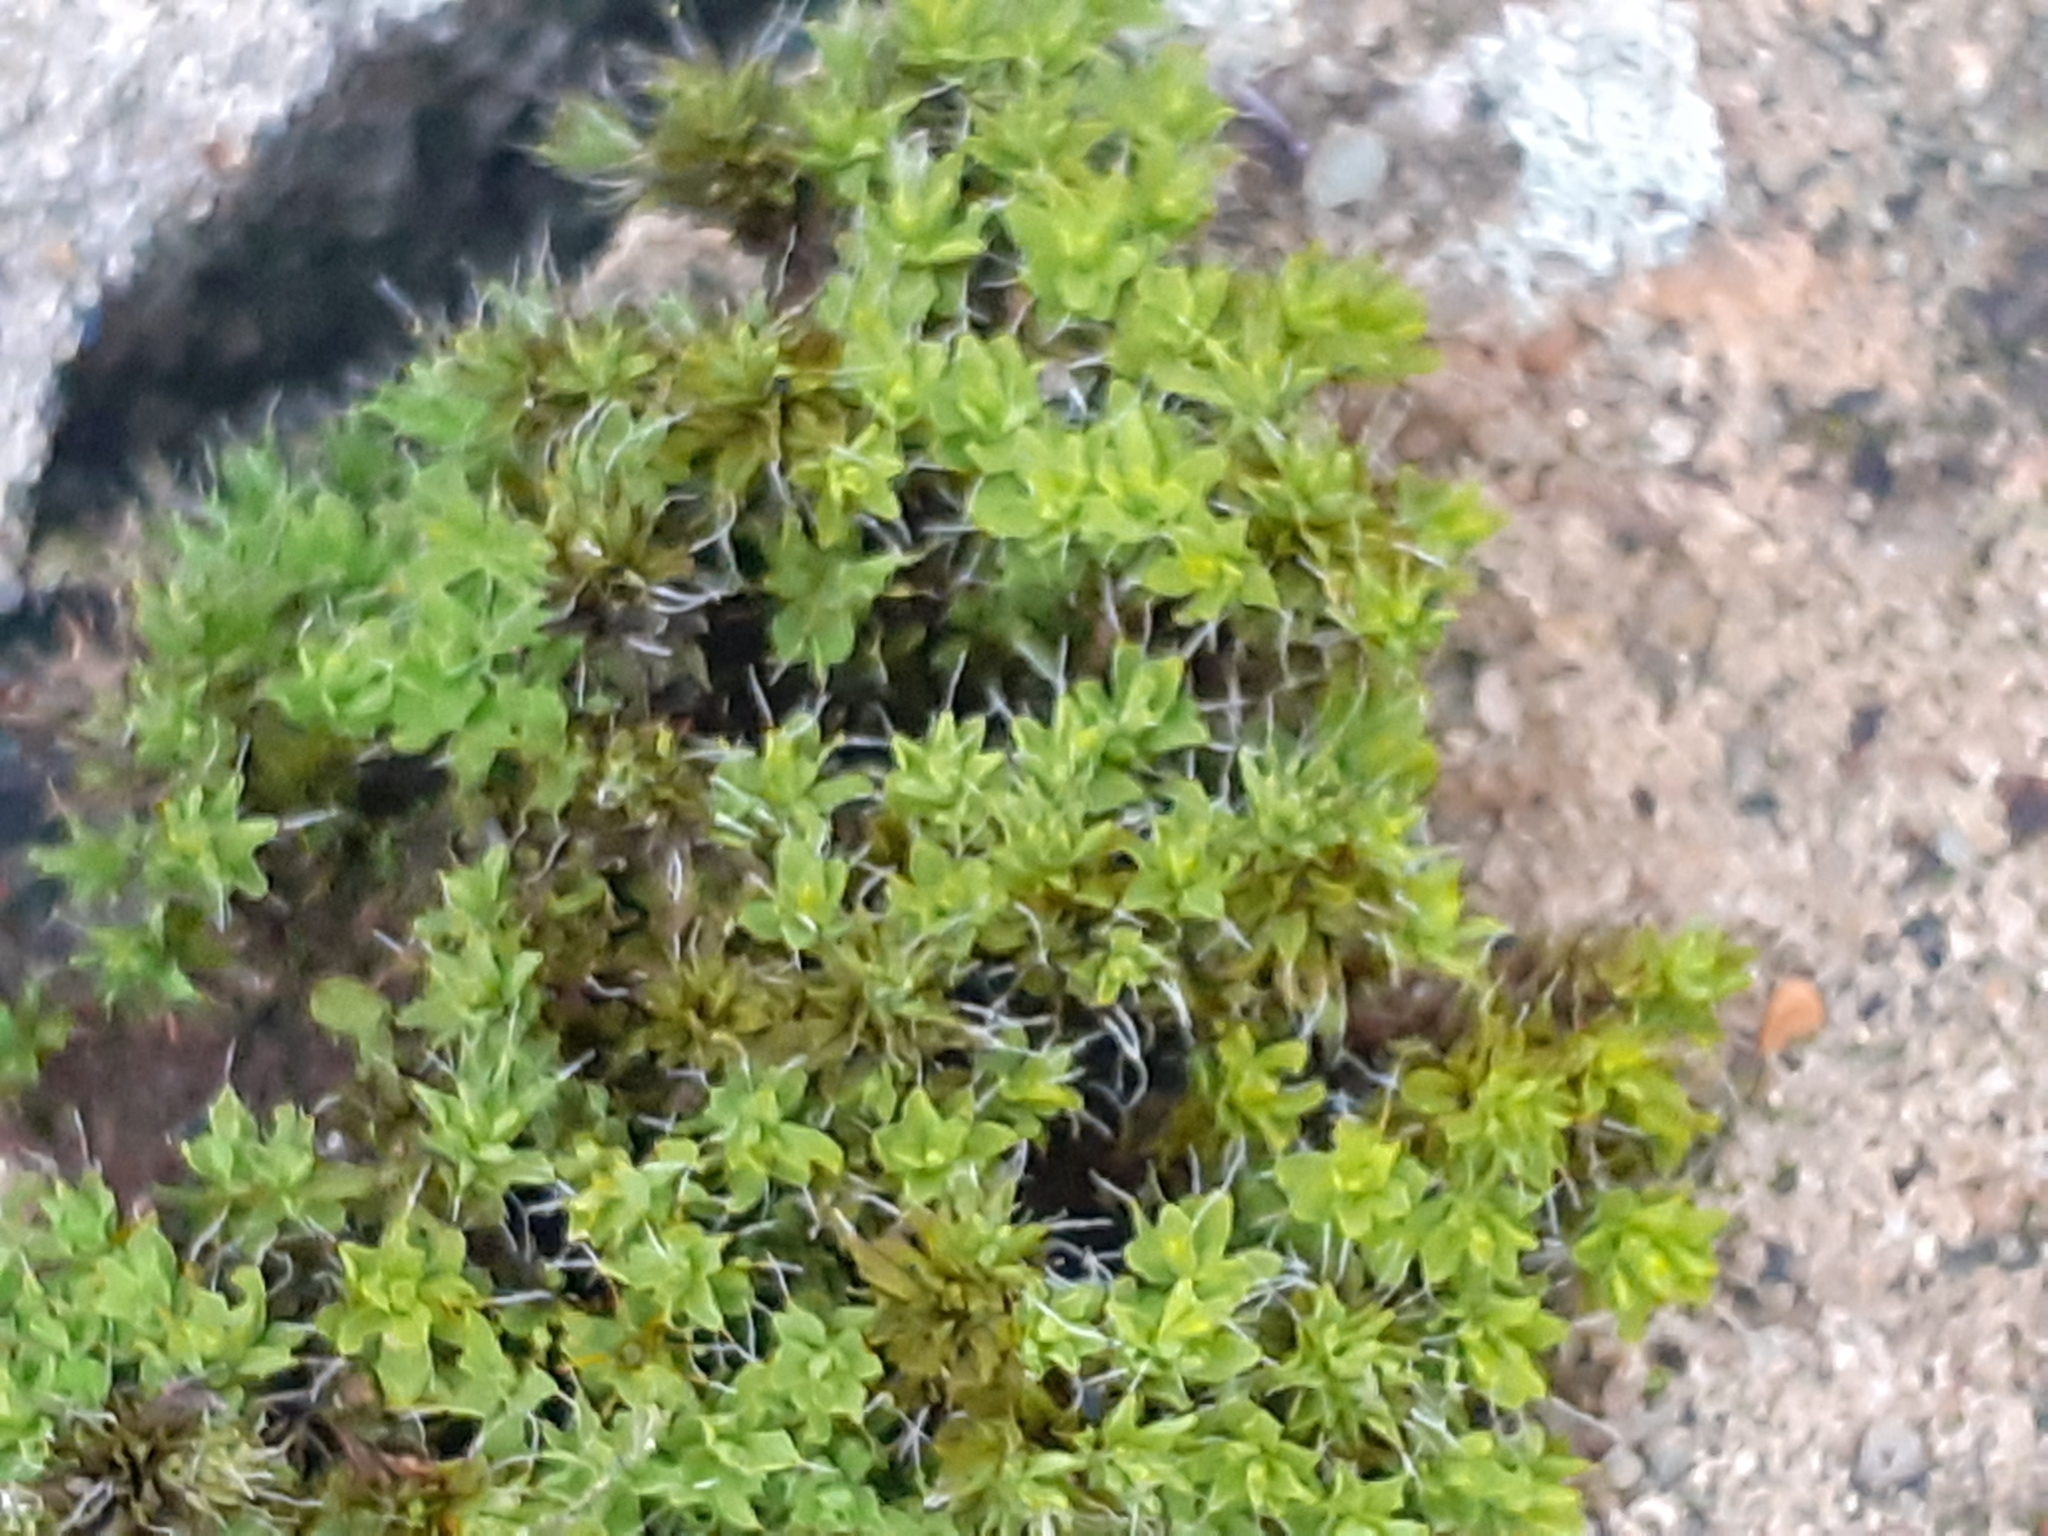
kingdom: Plantae
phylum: Bryophyta
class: Bryopsida
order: Pottiales
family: Pottiaceae
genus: Syntrichia
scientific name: Syntrichia montana
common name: Intermediate screw-moss
